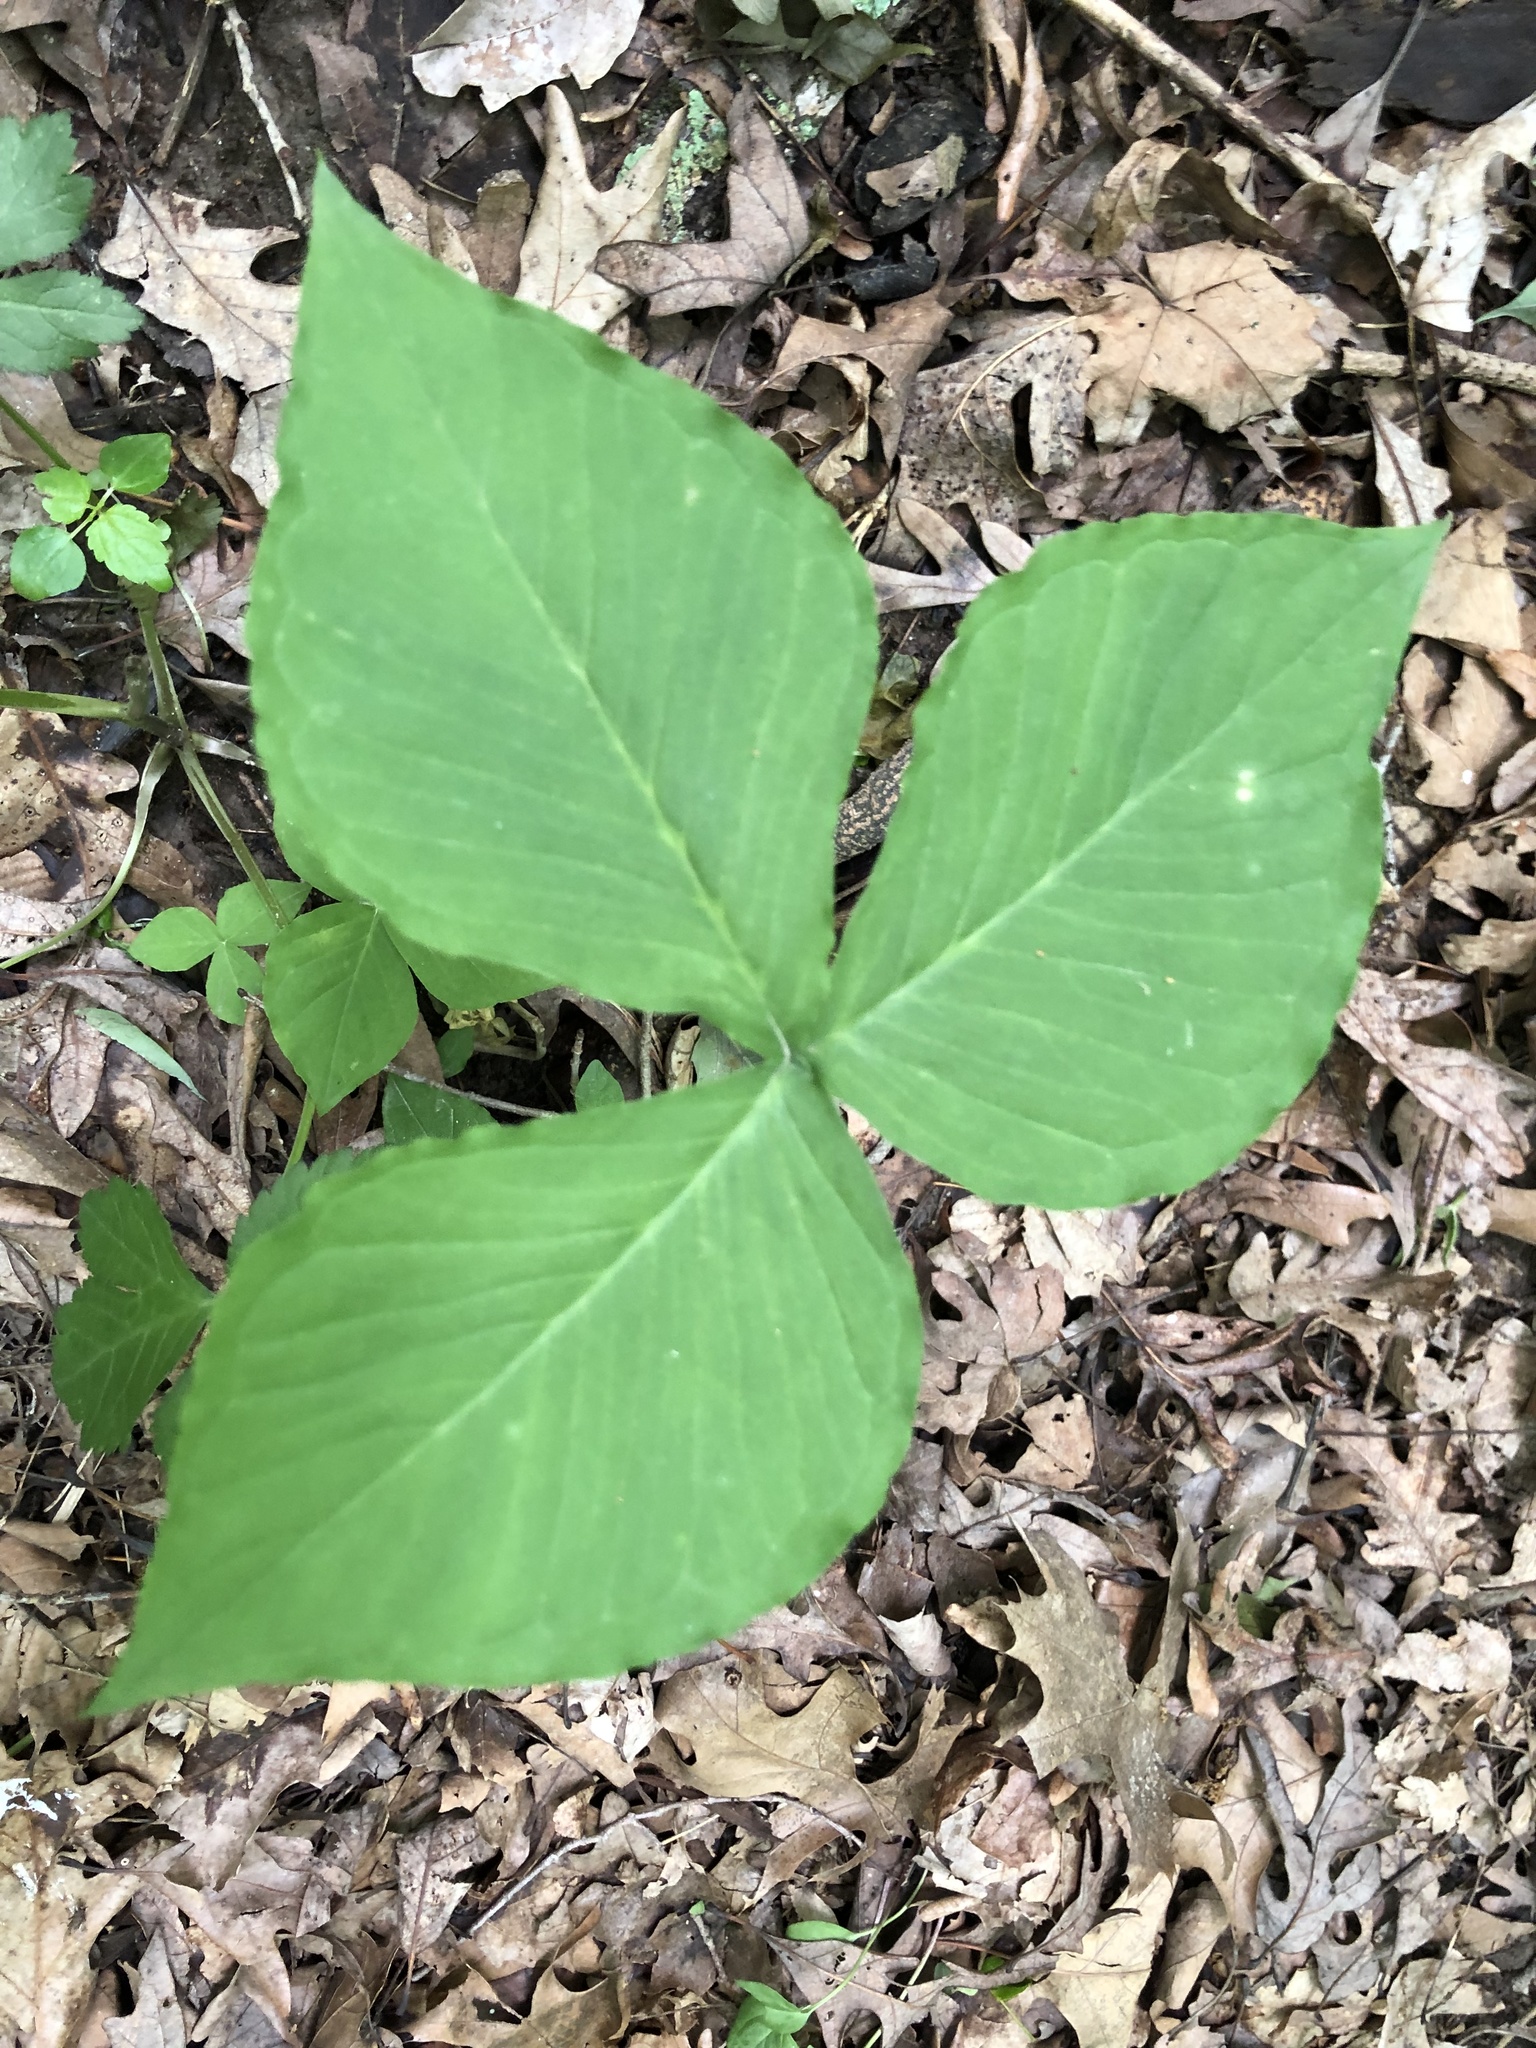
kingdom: Plantae
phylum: Tracheophyta
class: Liliopsida
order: Alismatales
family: Araceae
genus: Arisaema
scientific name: Arisaema triphyllum
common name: Jack-in-the-pulpit
